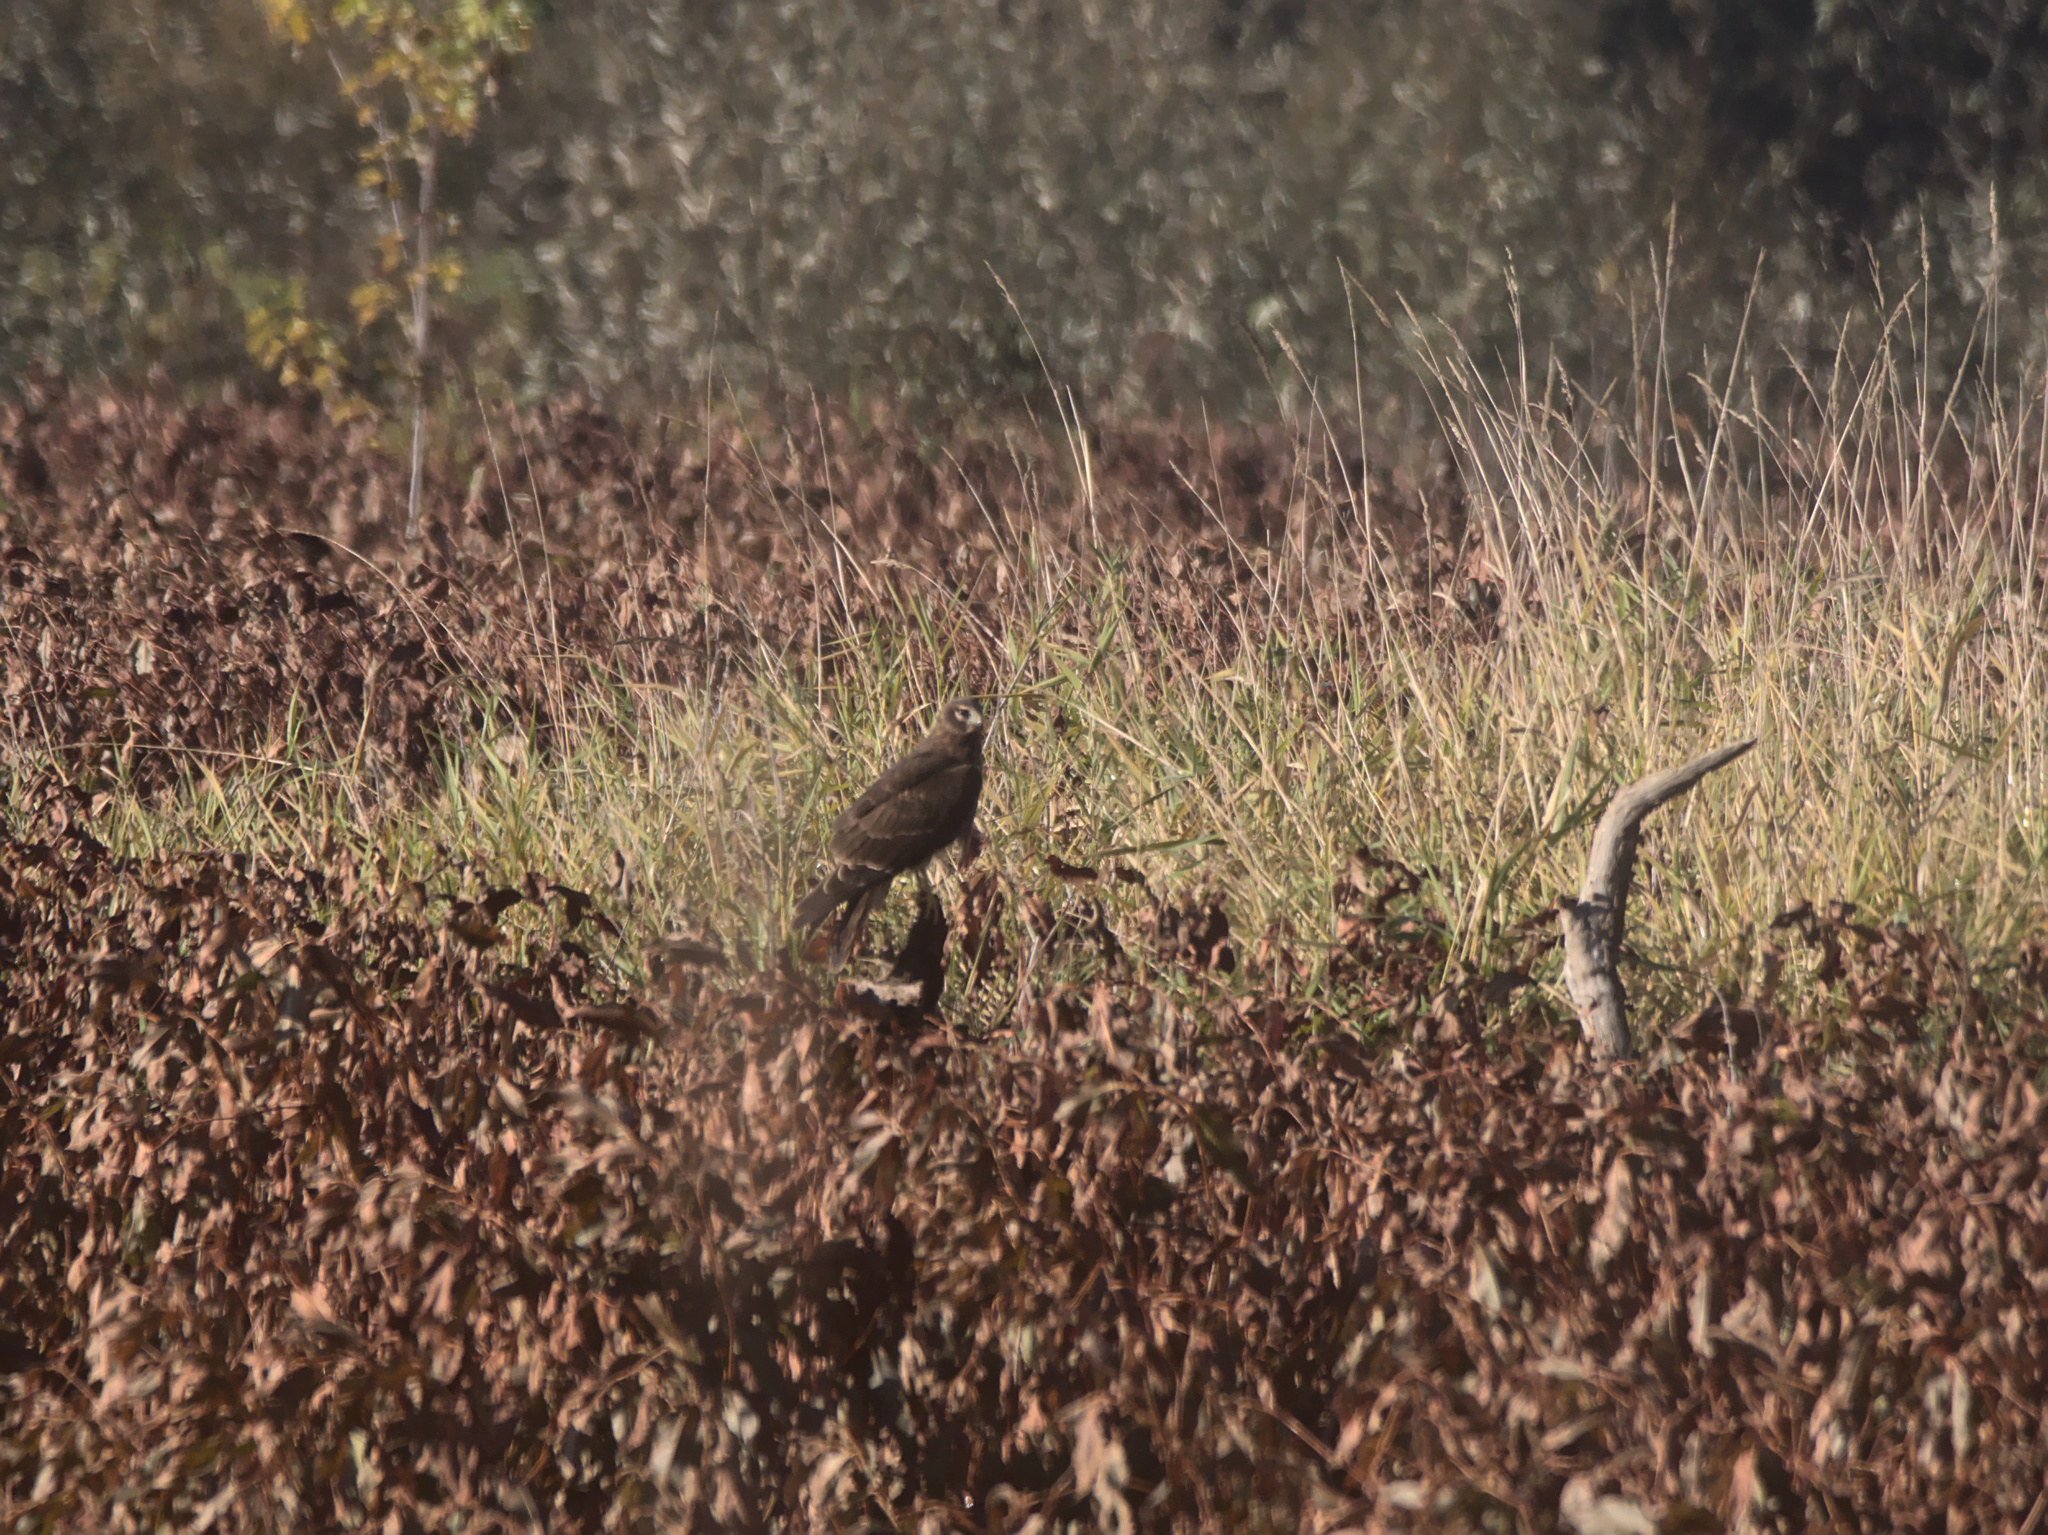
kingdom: Animalia
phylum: Chordata
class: Aves
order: Accipitriformes
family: Accipitridae
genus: Circus
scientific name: Circus cyaneus
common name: Hen harrier
